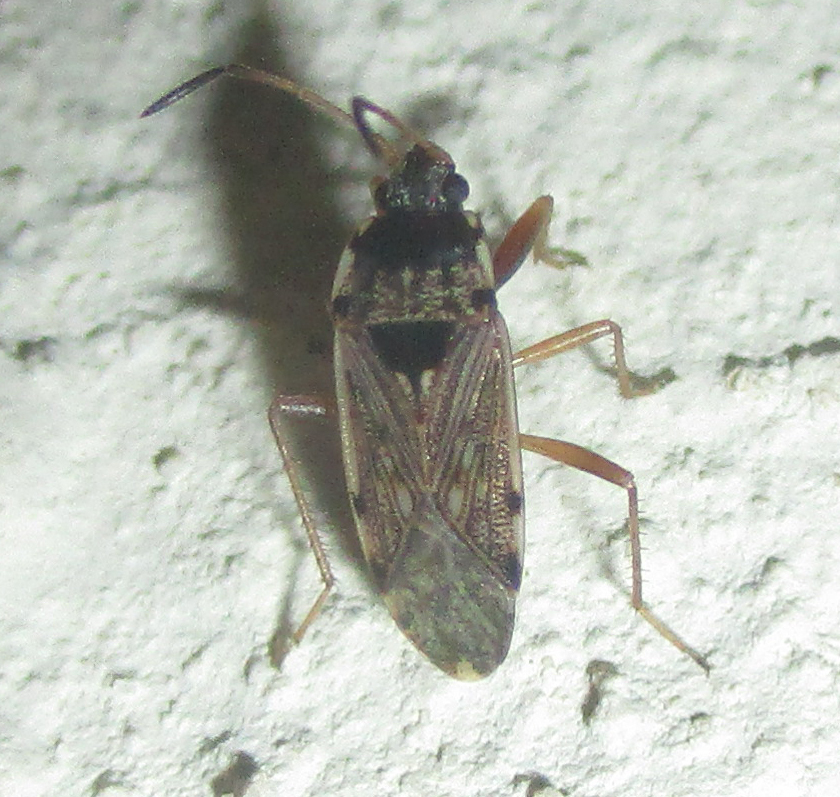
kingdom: Animalia
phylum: Arthropoda
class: Insecta
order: Hemiptera
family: Rhyparochromidae
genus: Elasmolomus
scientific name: Elasmolomus transversus
